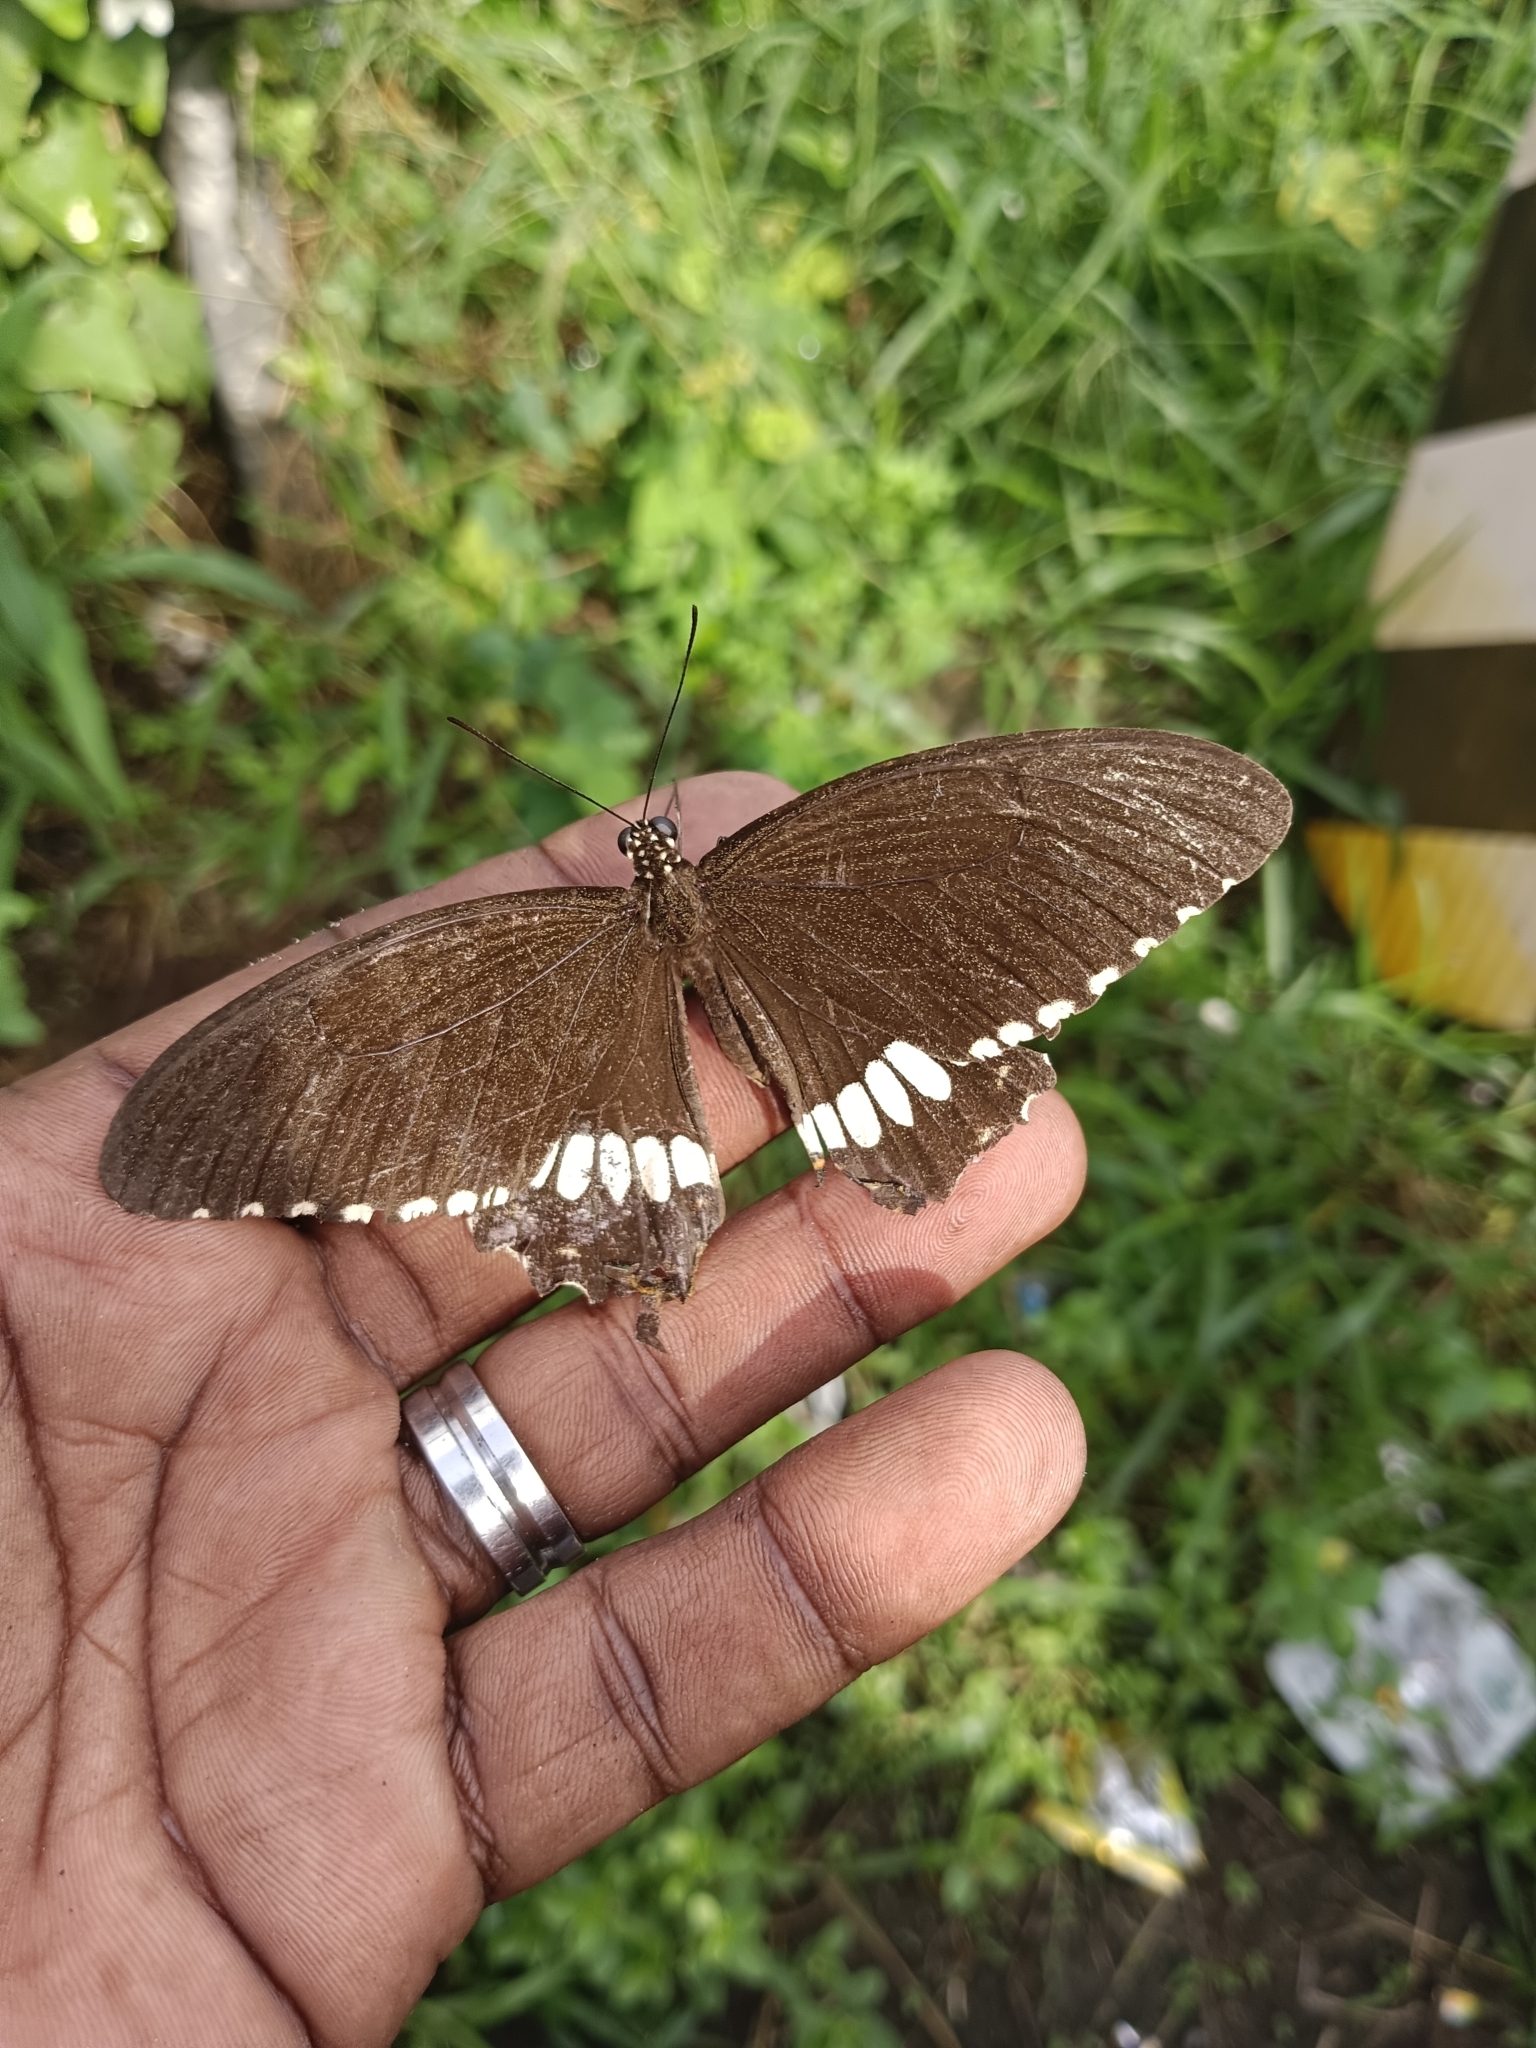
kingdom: Animalia
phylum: Arthropoda
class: Insecta
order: Lepidoptera
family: Papilionidae
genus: Papilio
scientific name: Papilio polytes
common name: Common mormon
